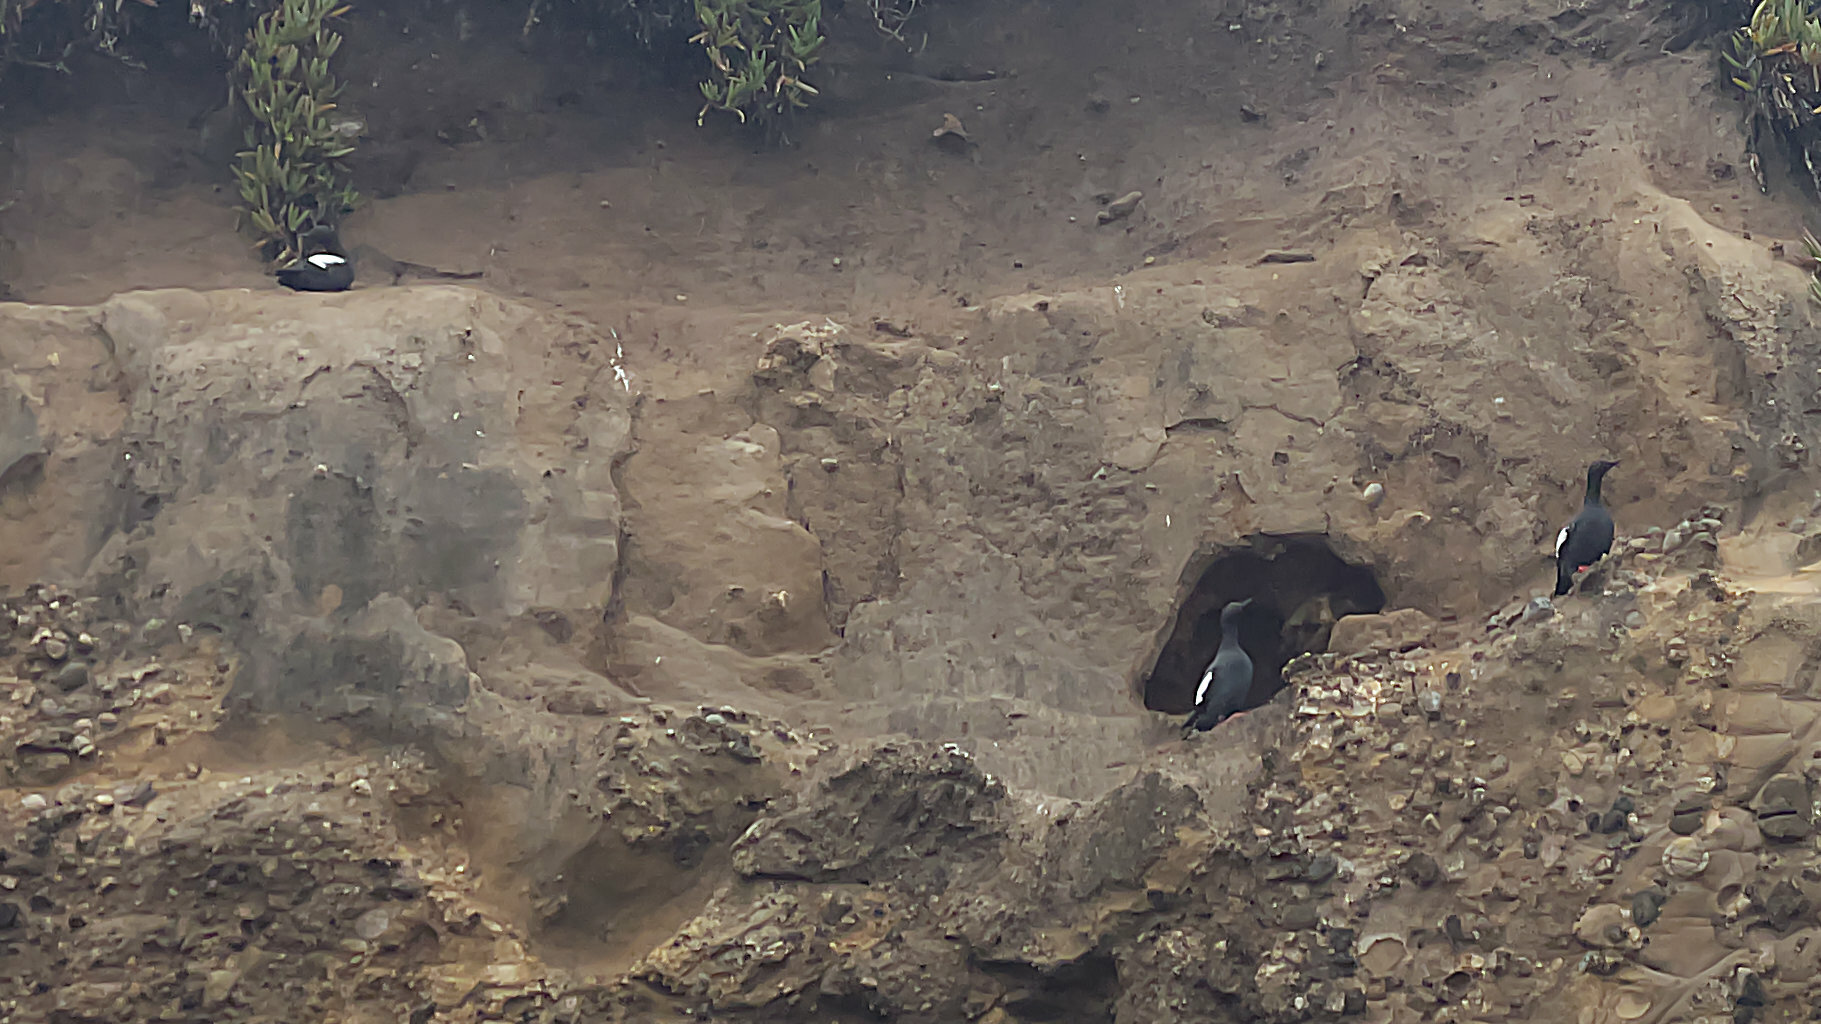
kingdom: Animalia
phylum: Chordata
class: Aves
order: Charadriiformes
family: Alcidae
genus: Cepphus
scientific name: Cepphus columba
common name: Pigeon guillemot
